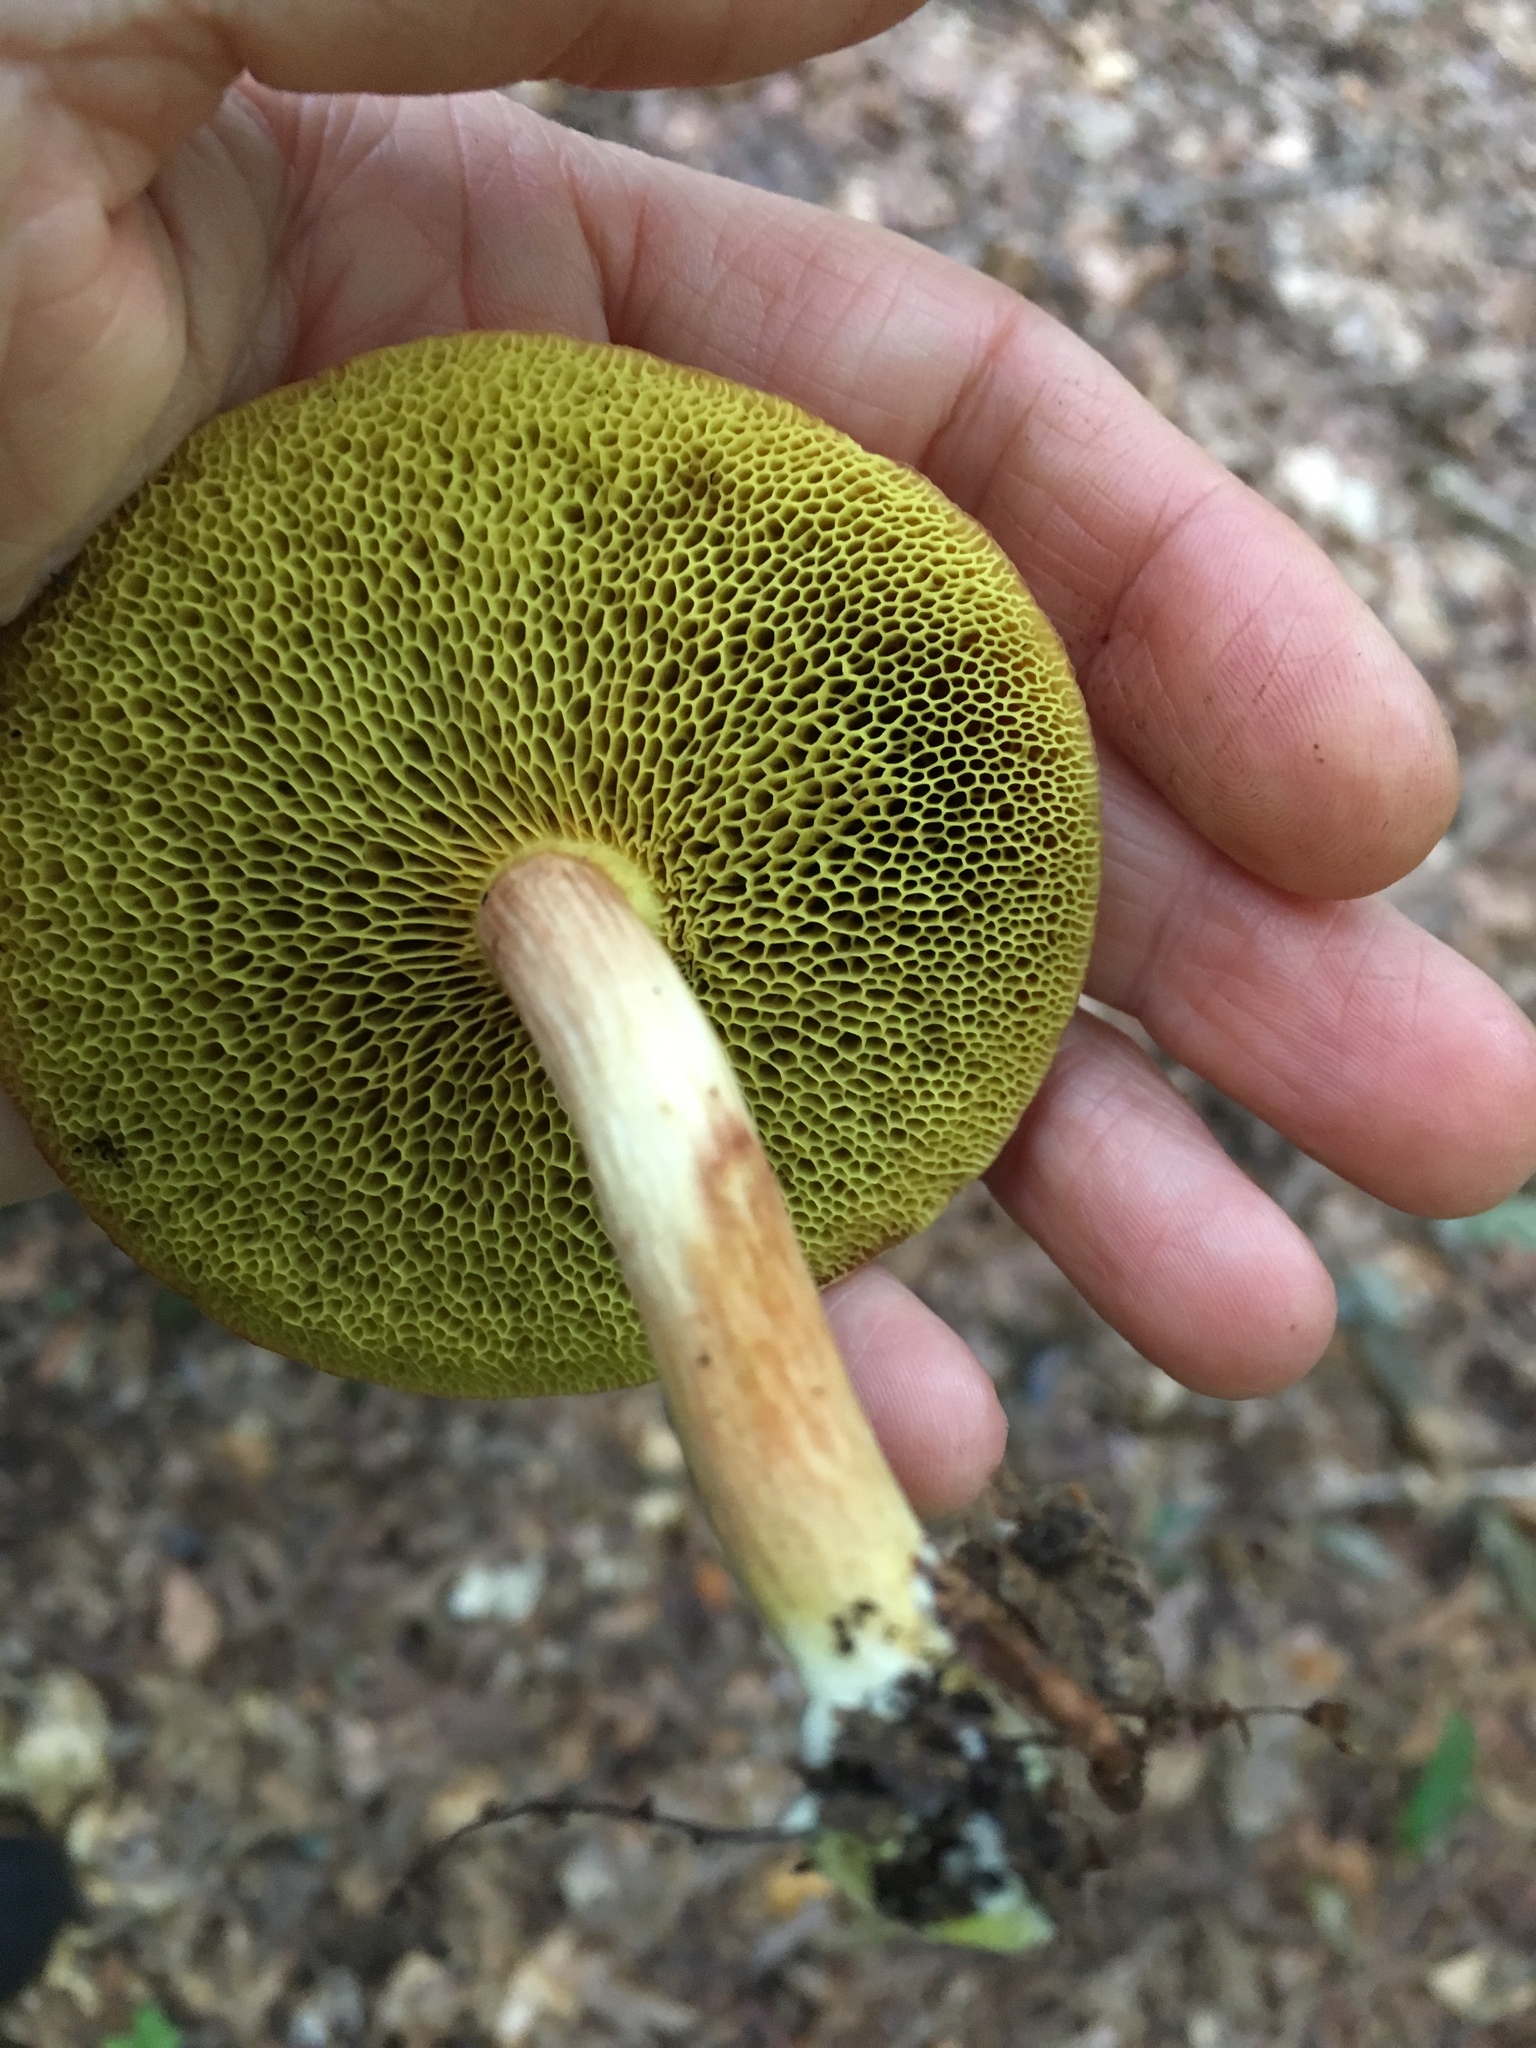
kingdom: Fungi
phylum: Basidiomycota
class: Agaricomycetes
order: Boletales
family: Boletaceae
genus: Xerocomus
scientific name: Xerocomus illudens
